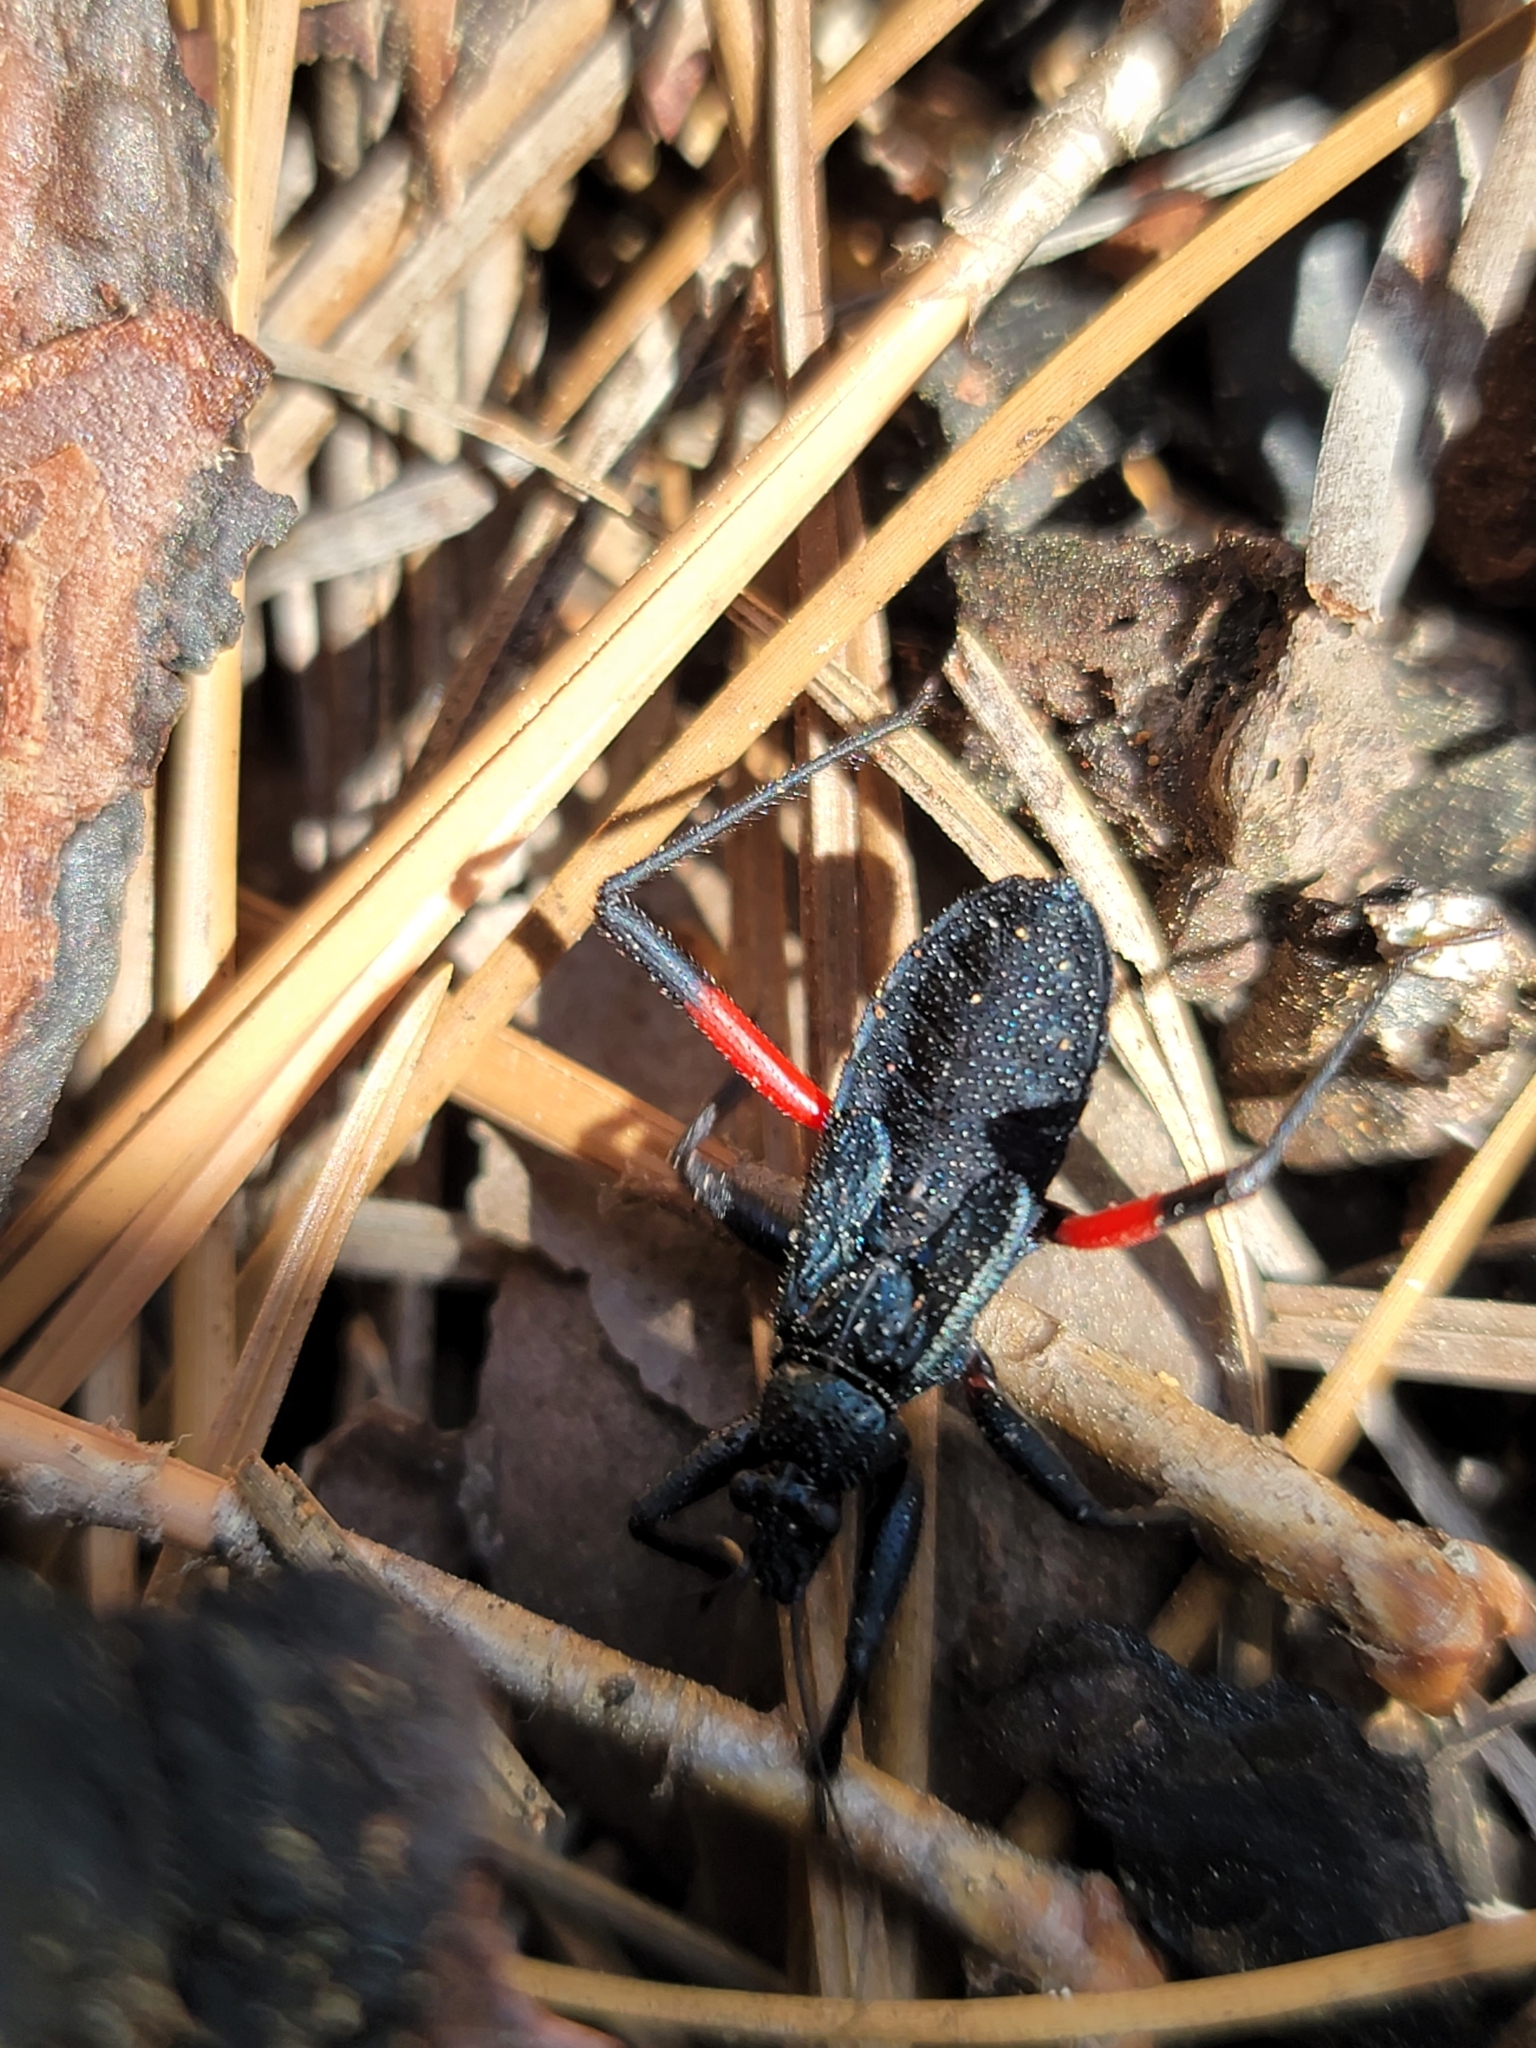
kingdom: Animalia
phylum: Arthropoda
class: Insecta
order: Hemiptera
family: Reduviidae
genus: Microtomus
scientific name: Microtomus purcis
